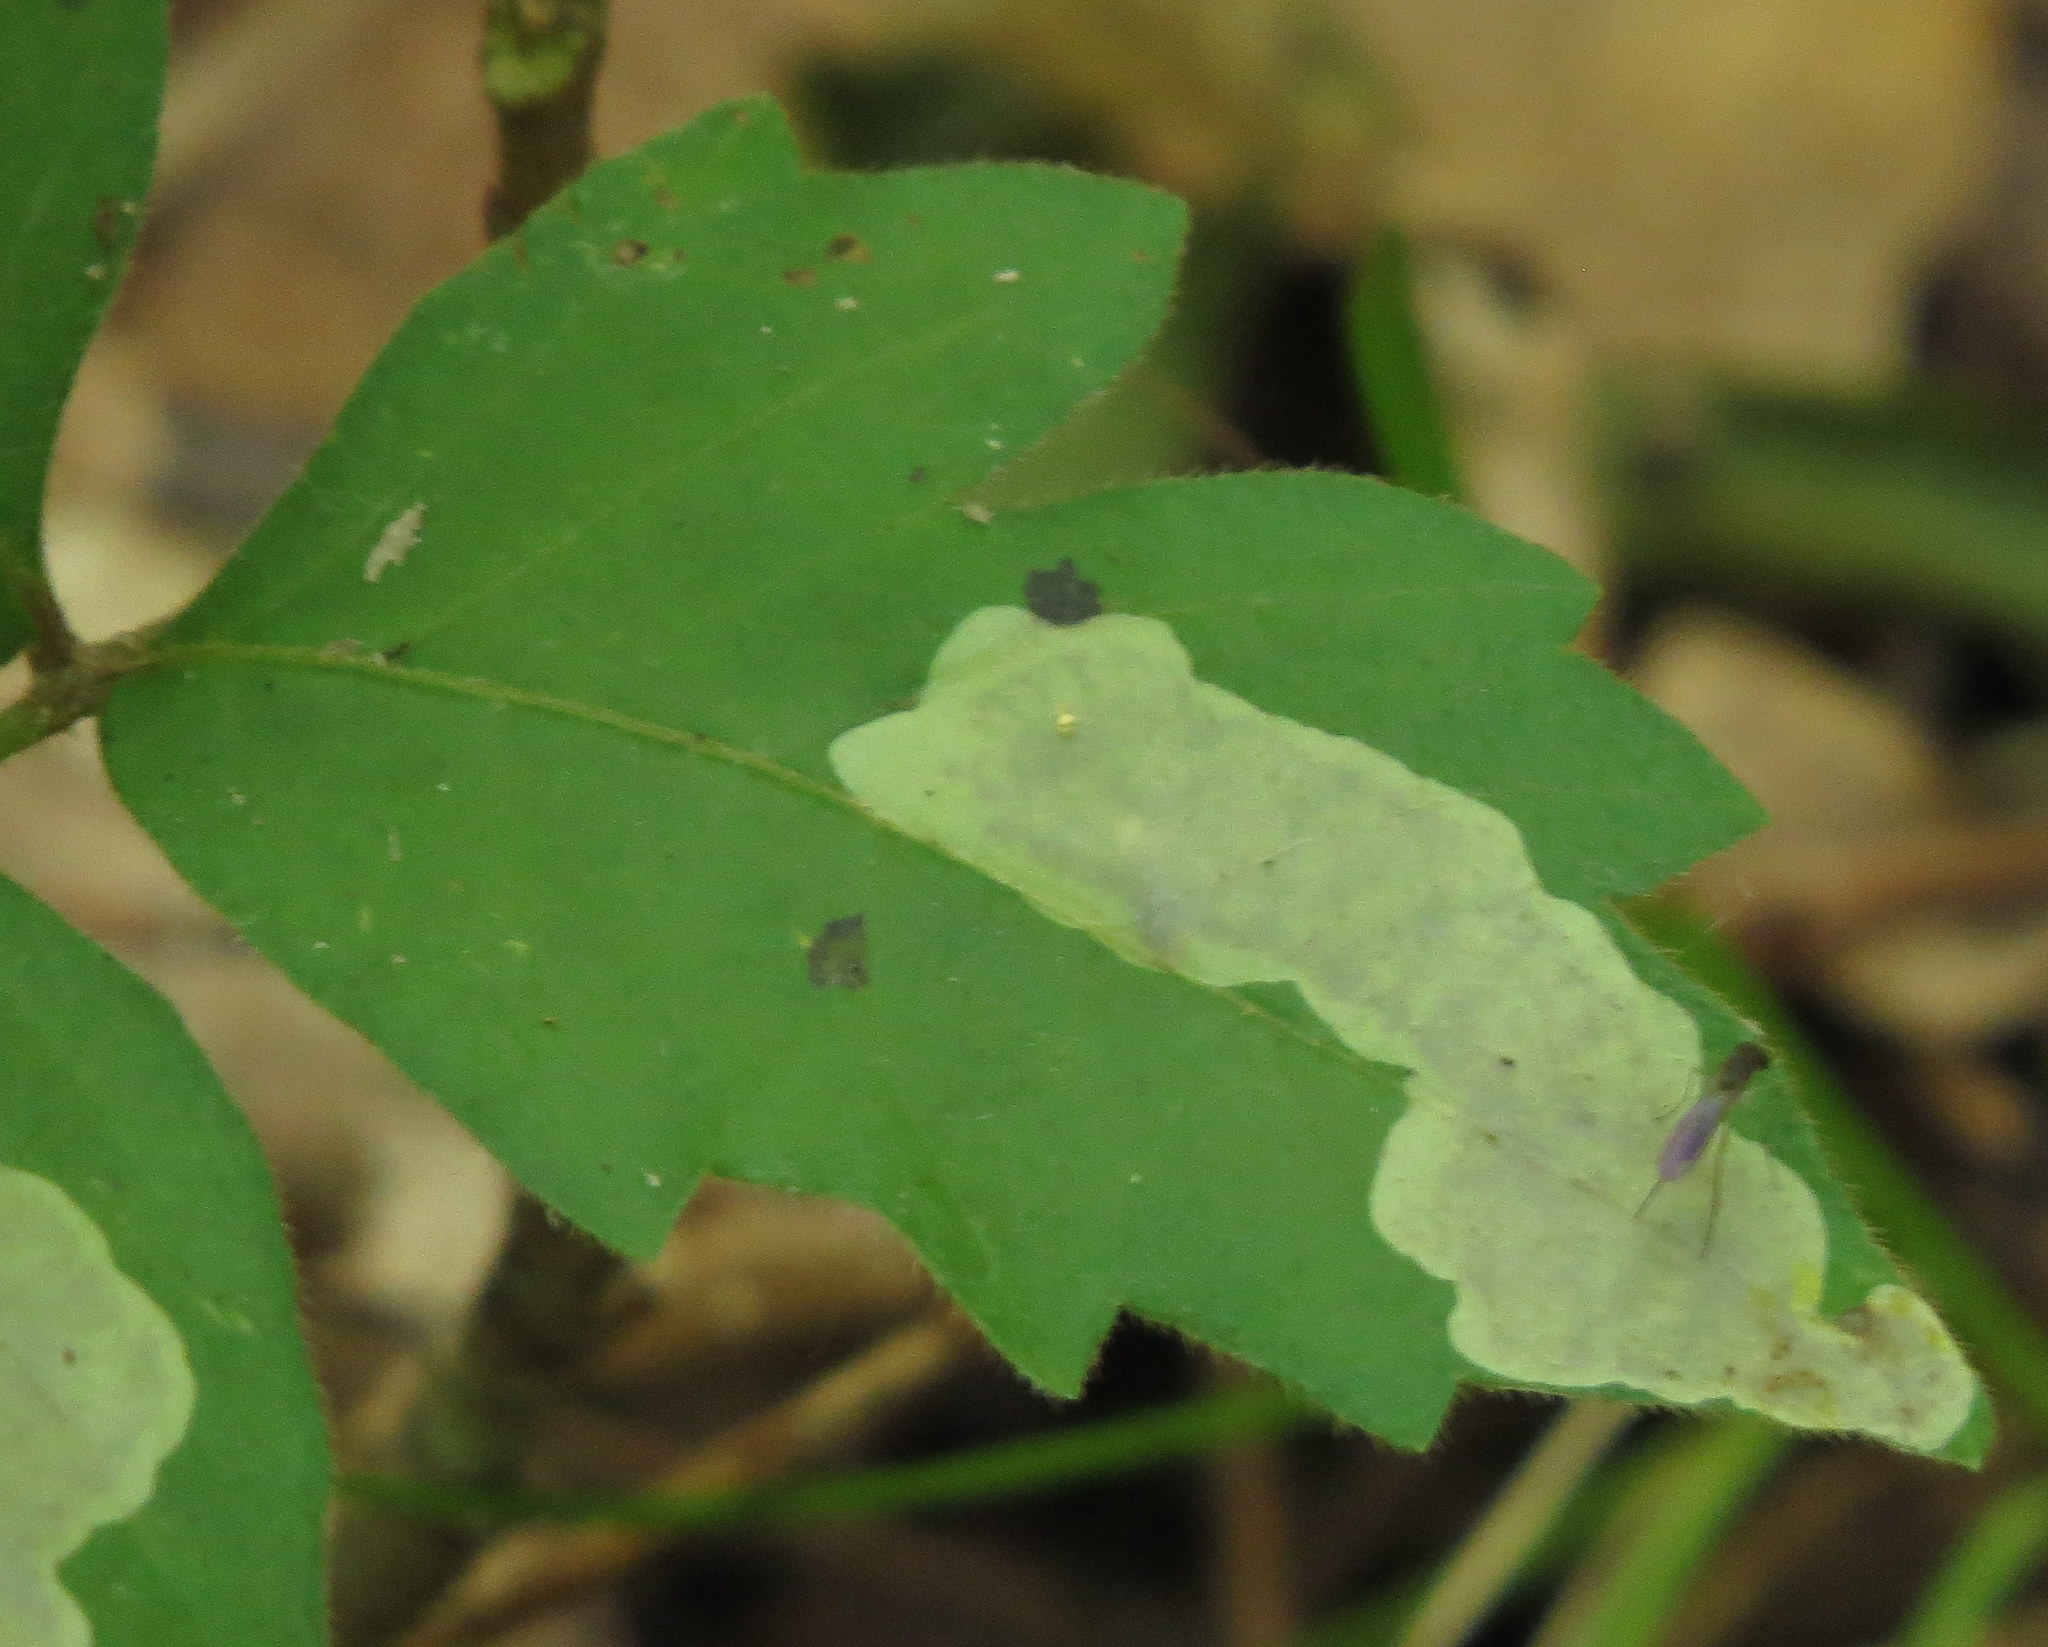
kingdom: Animalia
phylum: Arthropoda
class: Insecta
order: Lepidoptera
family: Gracillariidae
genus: Cameraria
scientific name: Cameraria guttifinitella
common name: Poison ivy leaf-miner moth
